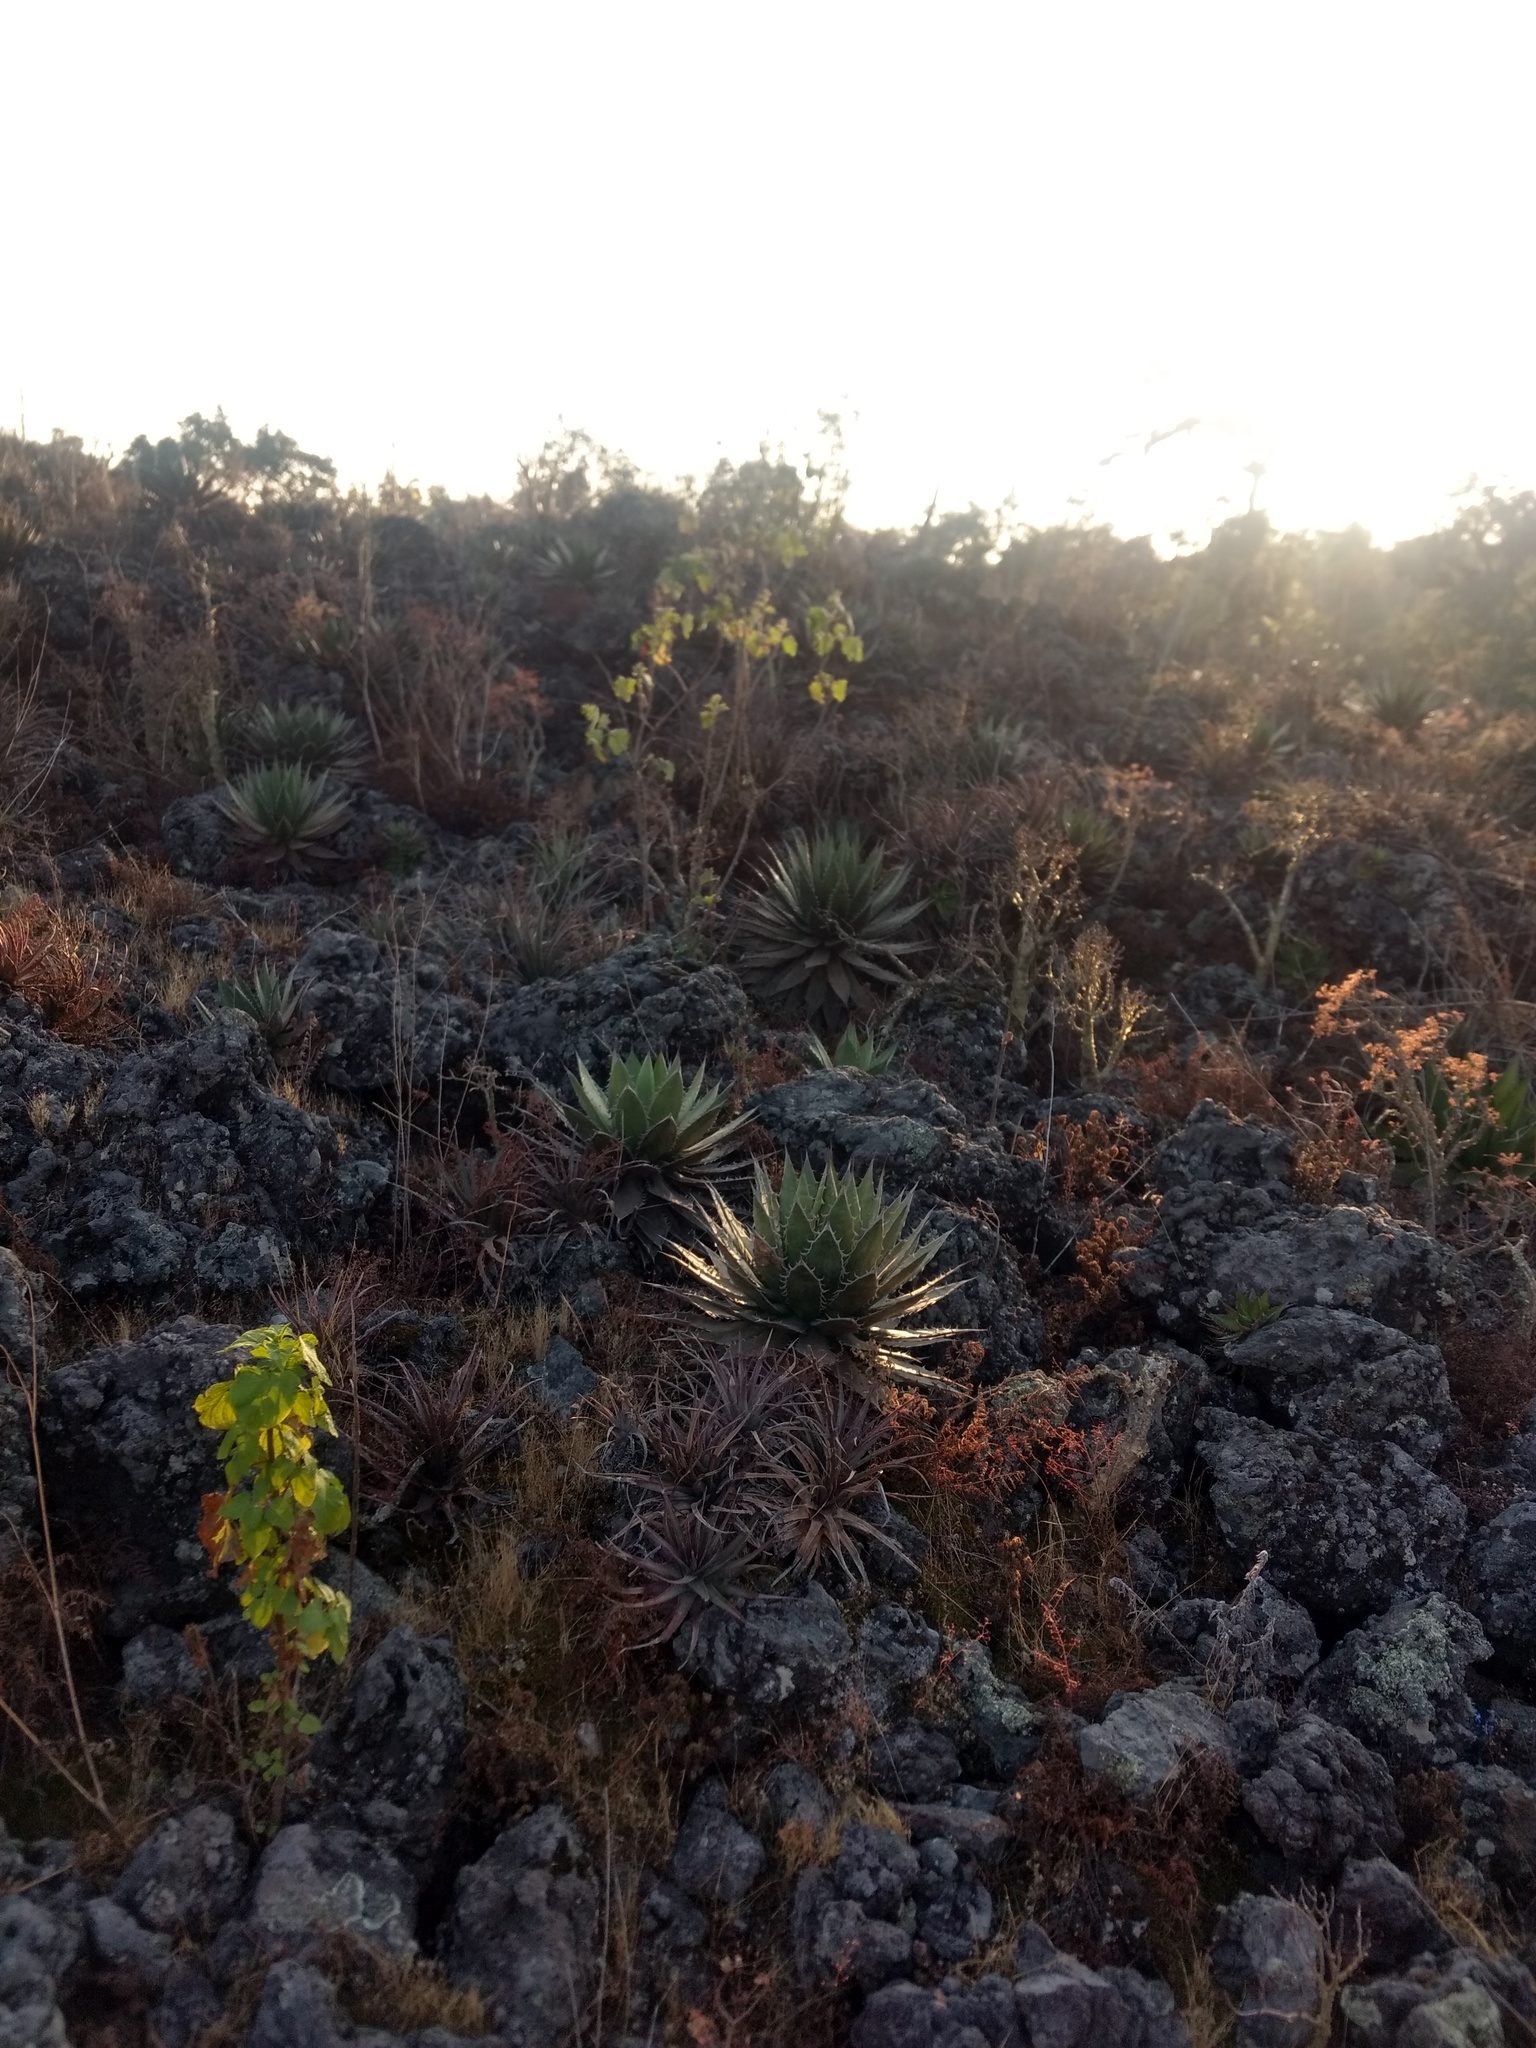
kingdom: Plantae
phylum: Tracheophyta
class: Liliopsida
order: Asparagales
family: Asparagaceae
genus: Agave
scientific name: Agave horrida
